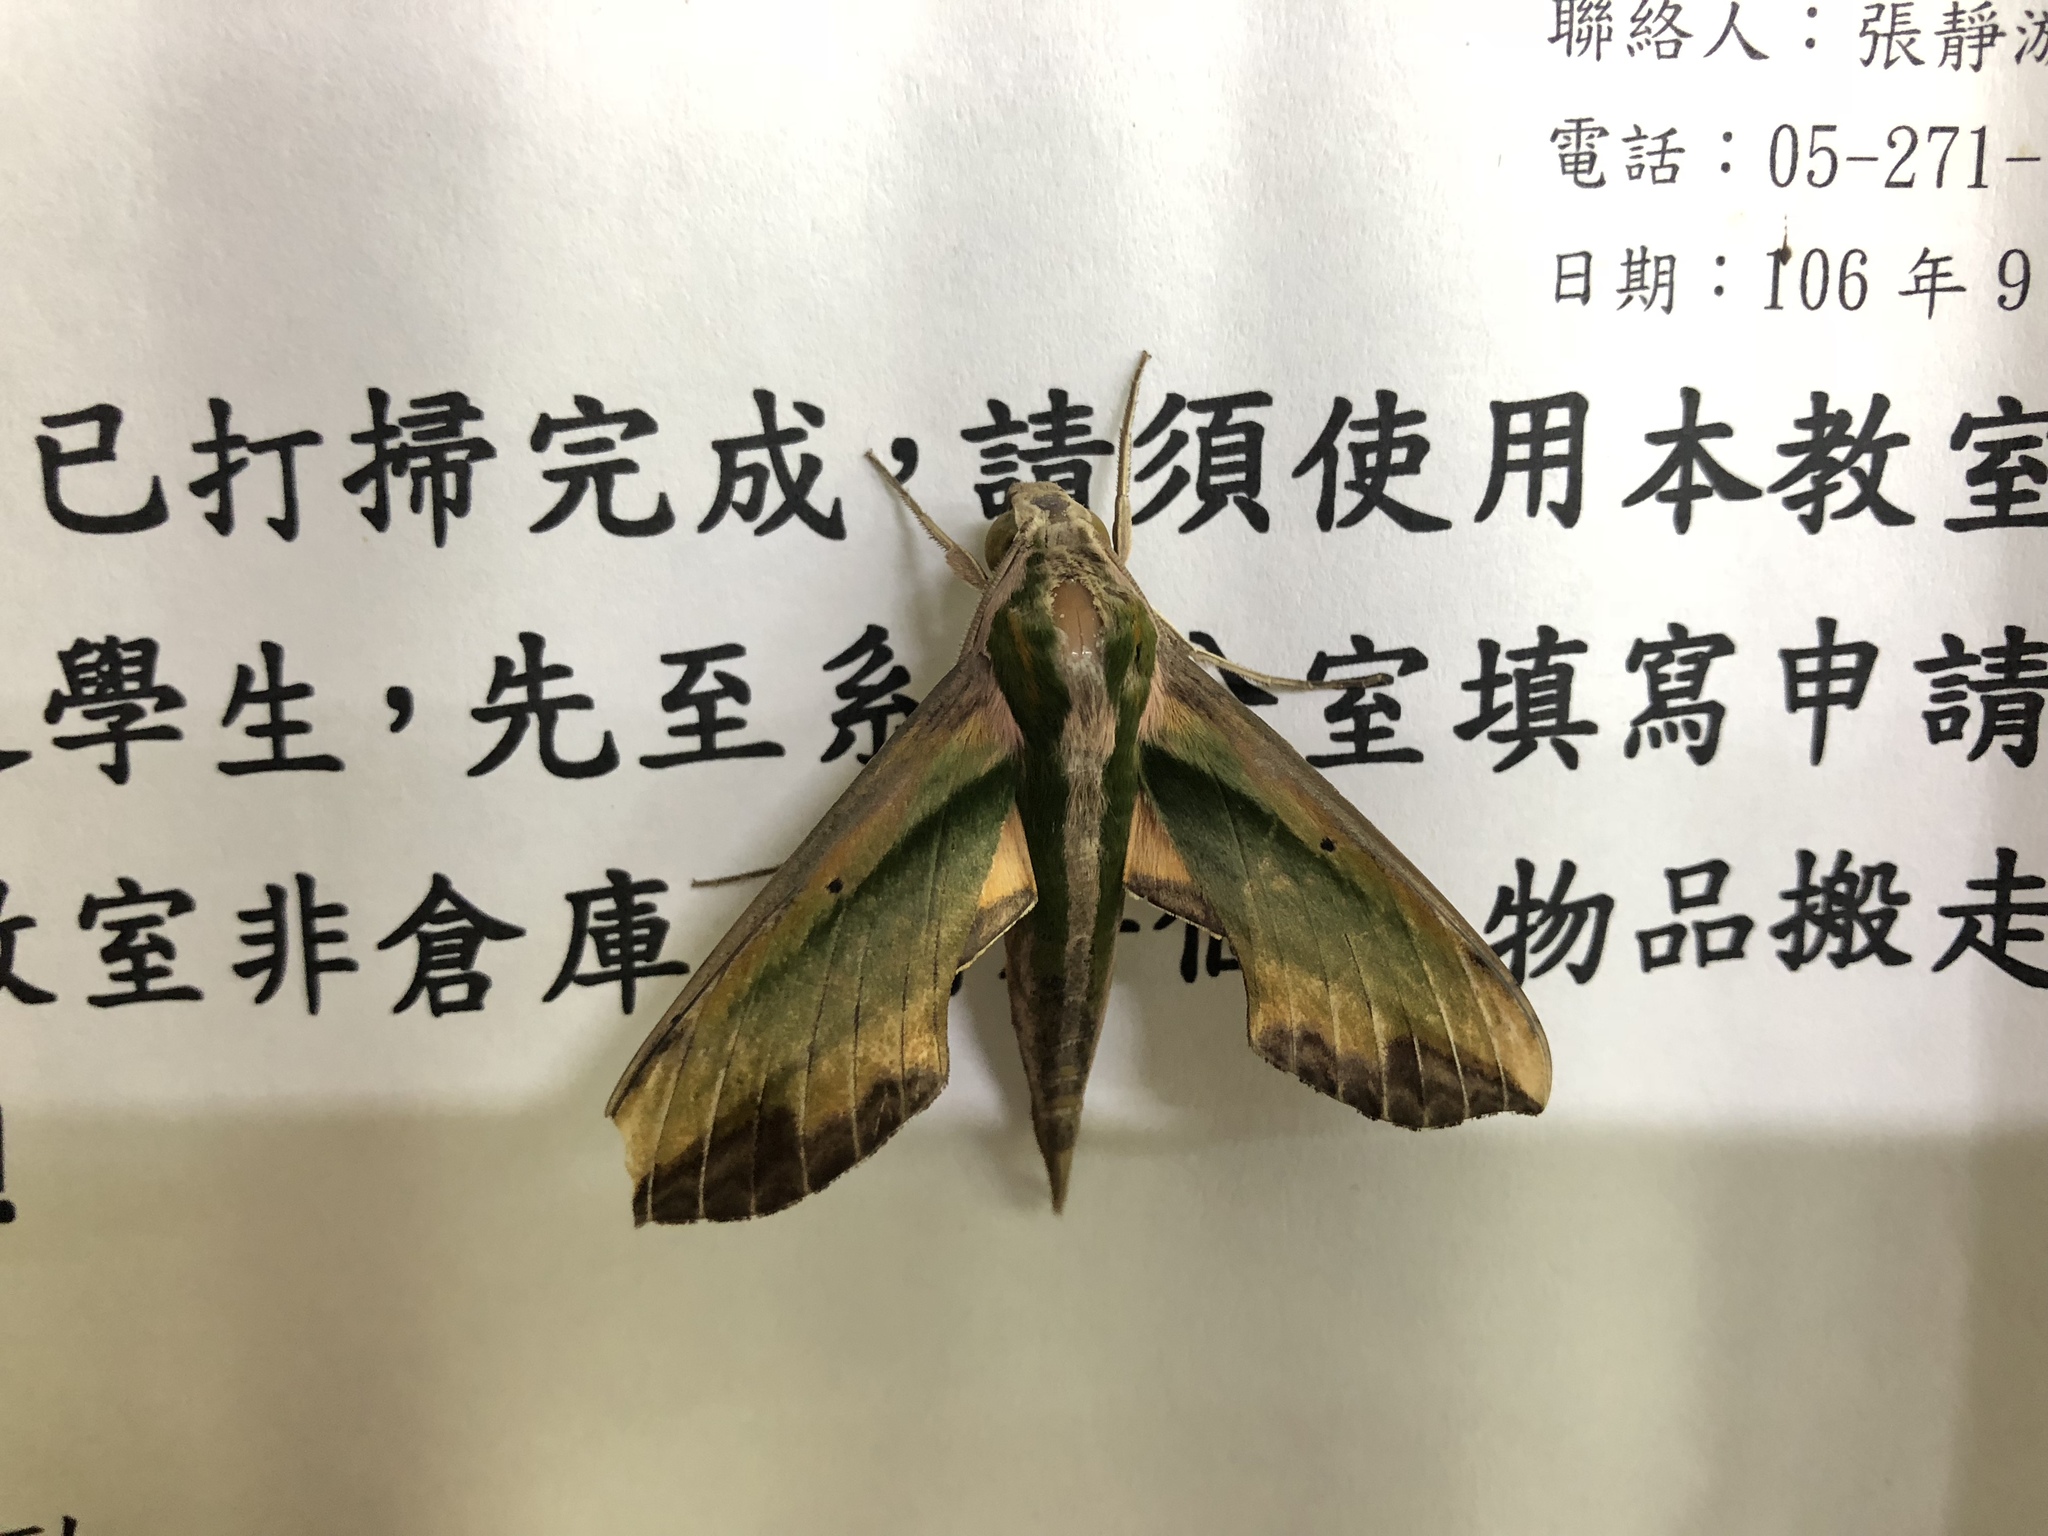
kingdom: Animalia
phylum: Arthropoda
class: Insecta
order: Lepidoptera
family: Sphingidae
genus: Pergesa
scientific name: Pergesa acteus
